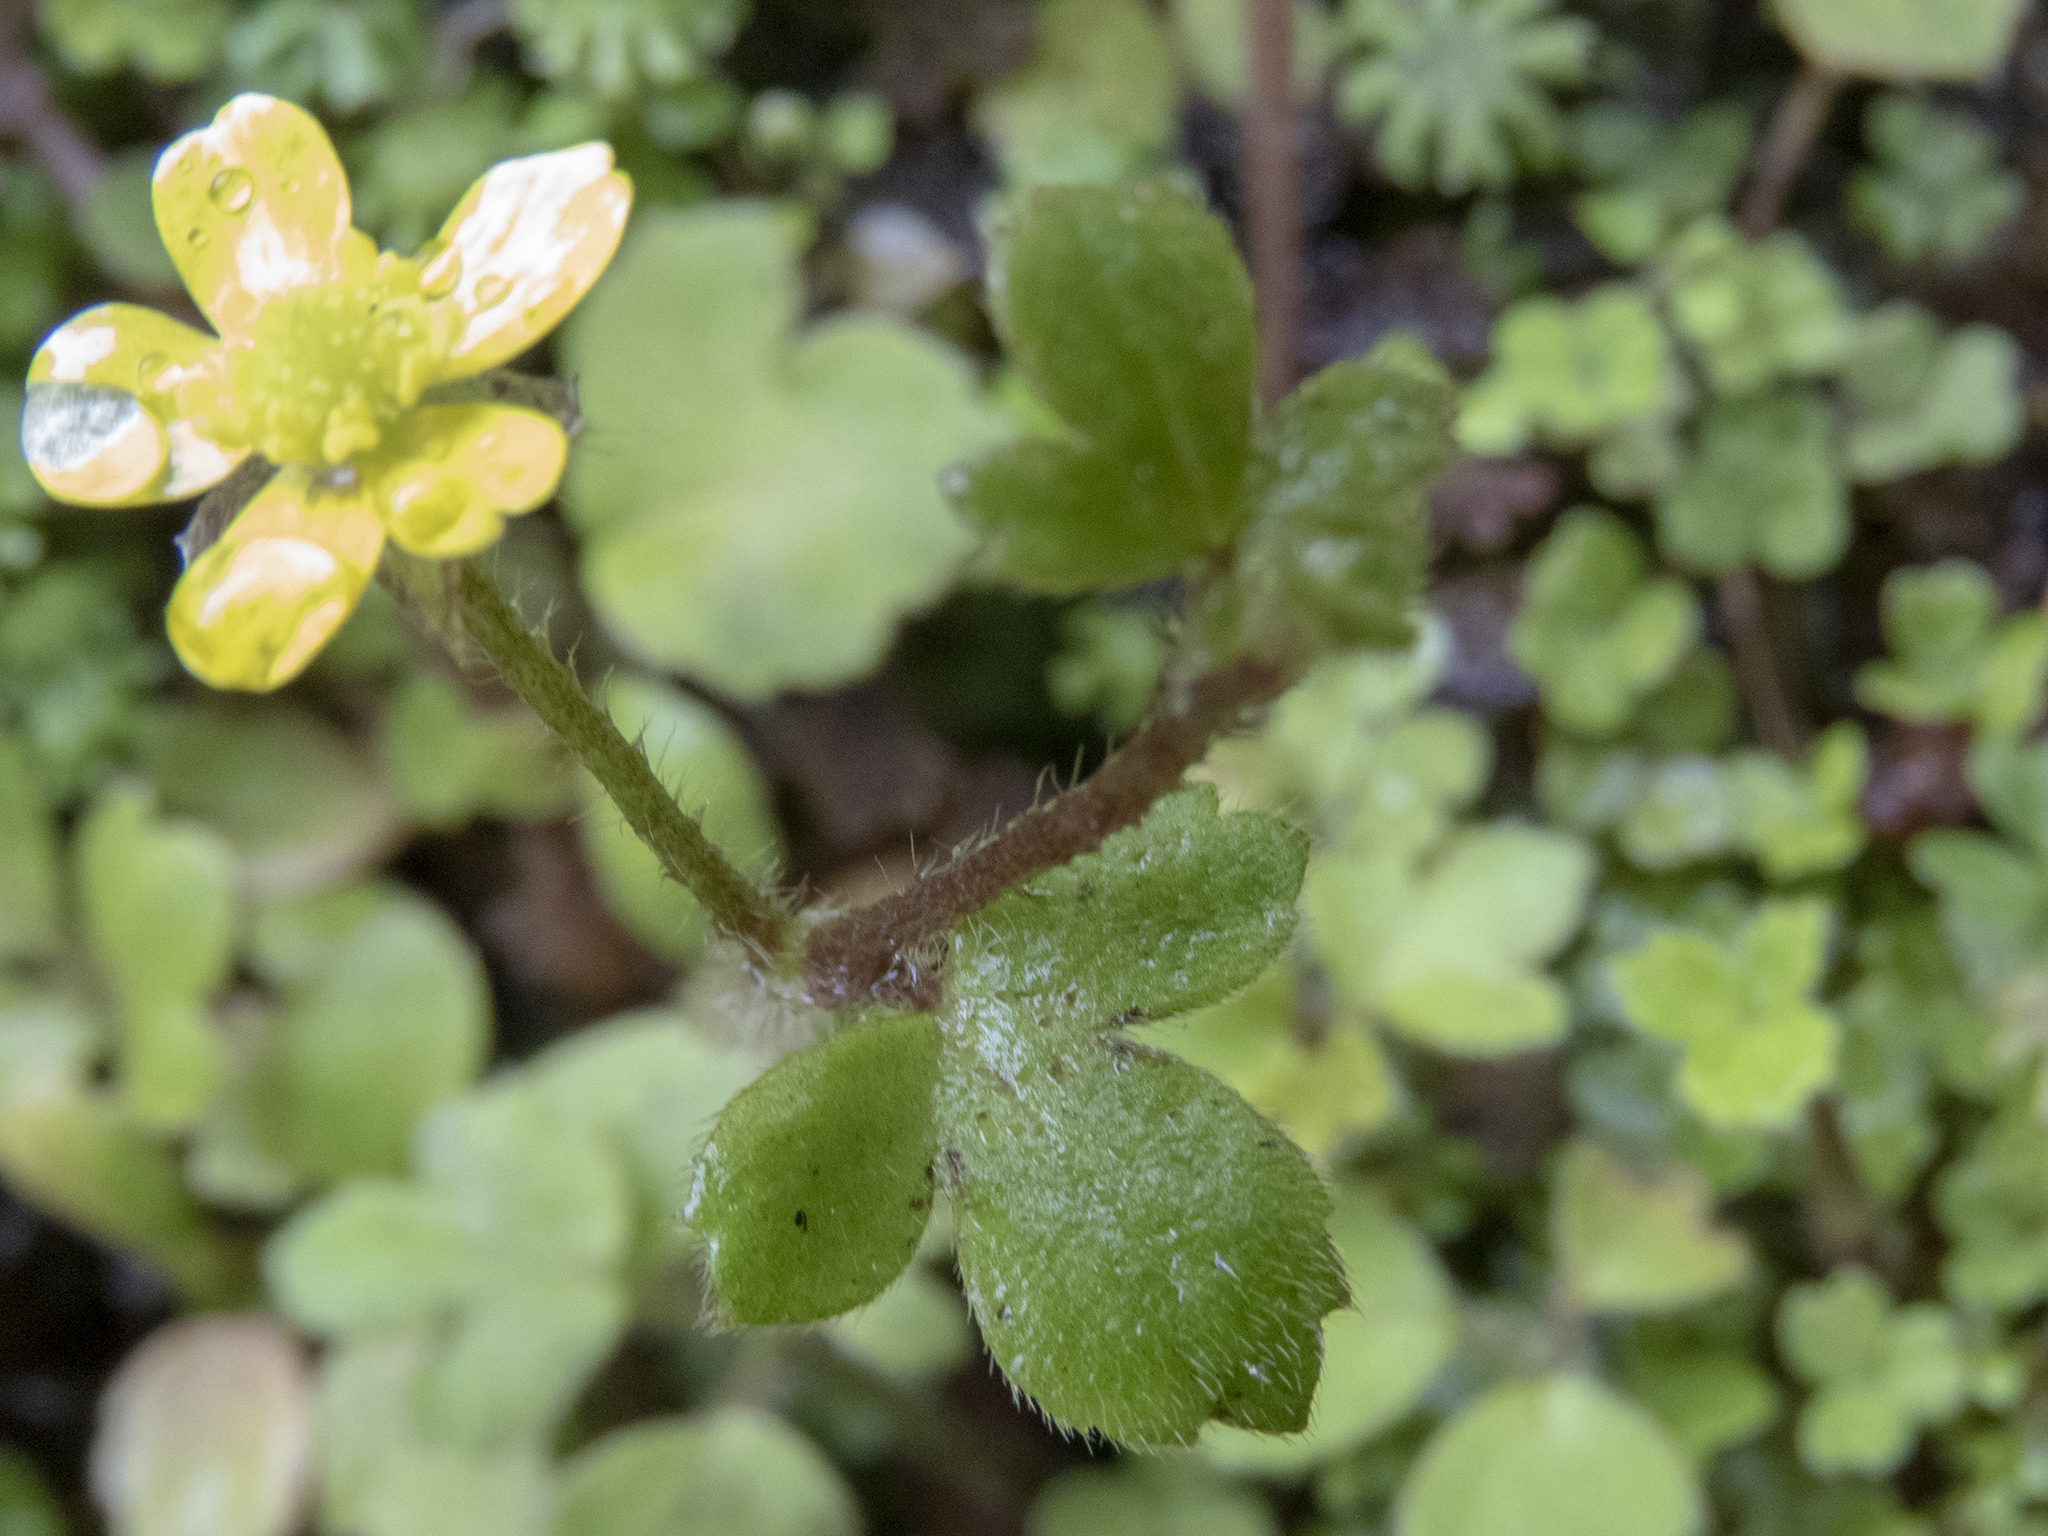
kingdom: Plantae
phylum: Tracheophyta
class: Magnoliopsida
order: Ranunculales
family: Ranunculaceae
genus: Ranunculus
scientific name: Ranunculus reflexus
